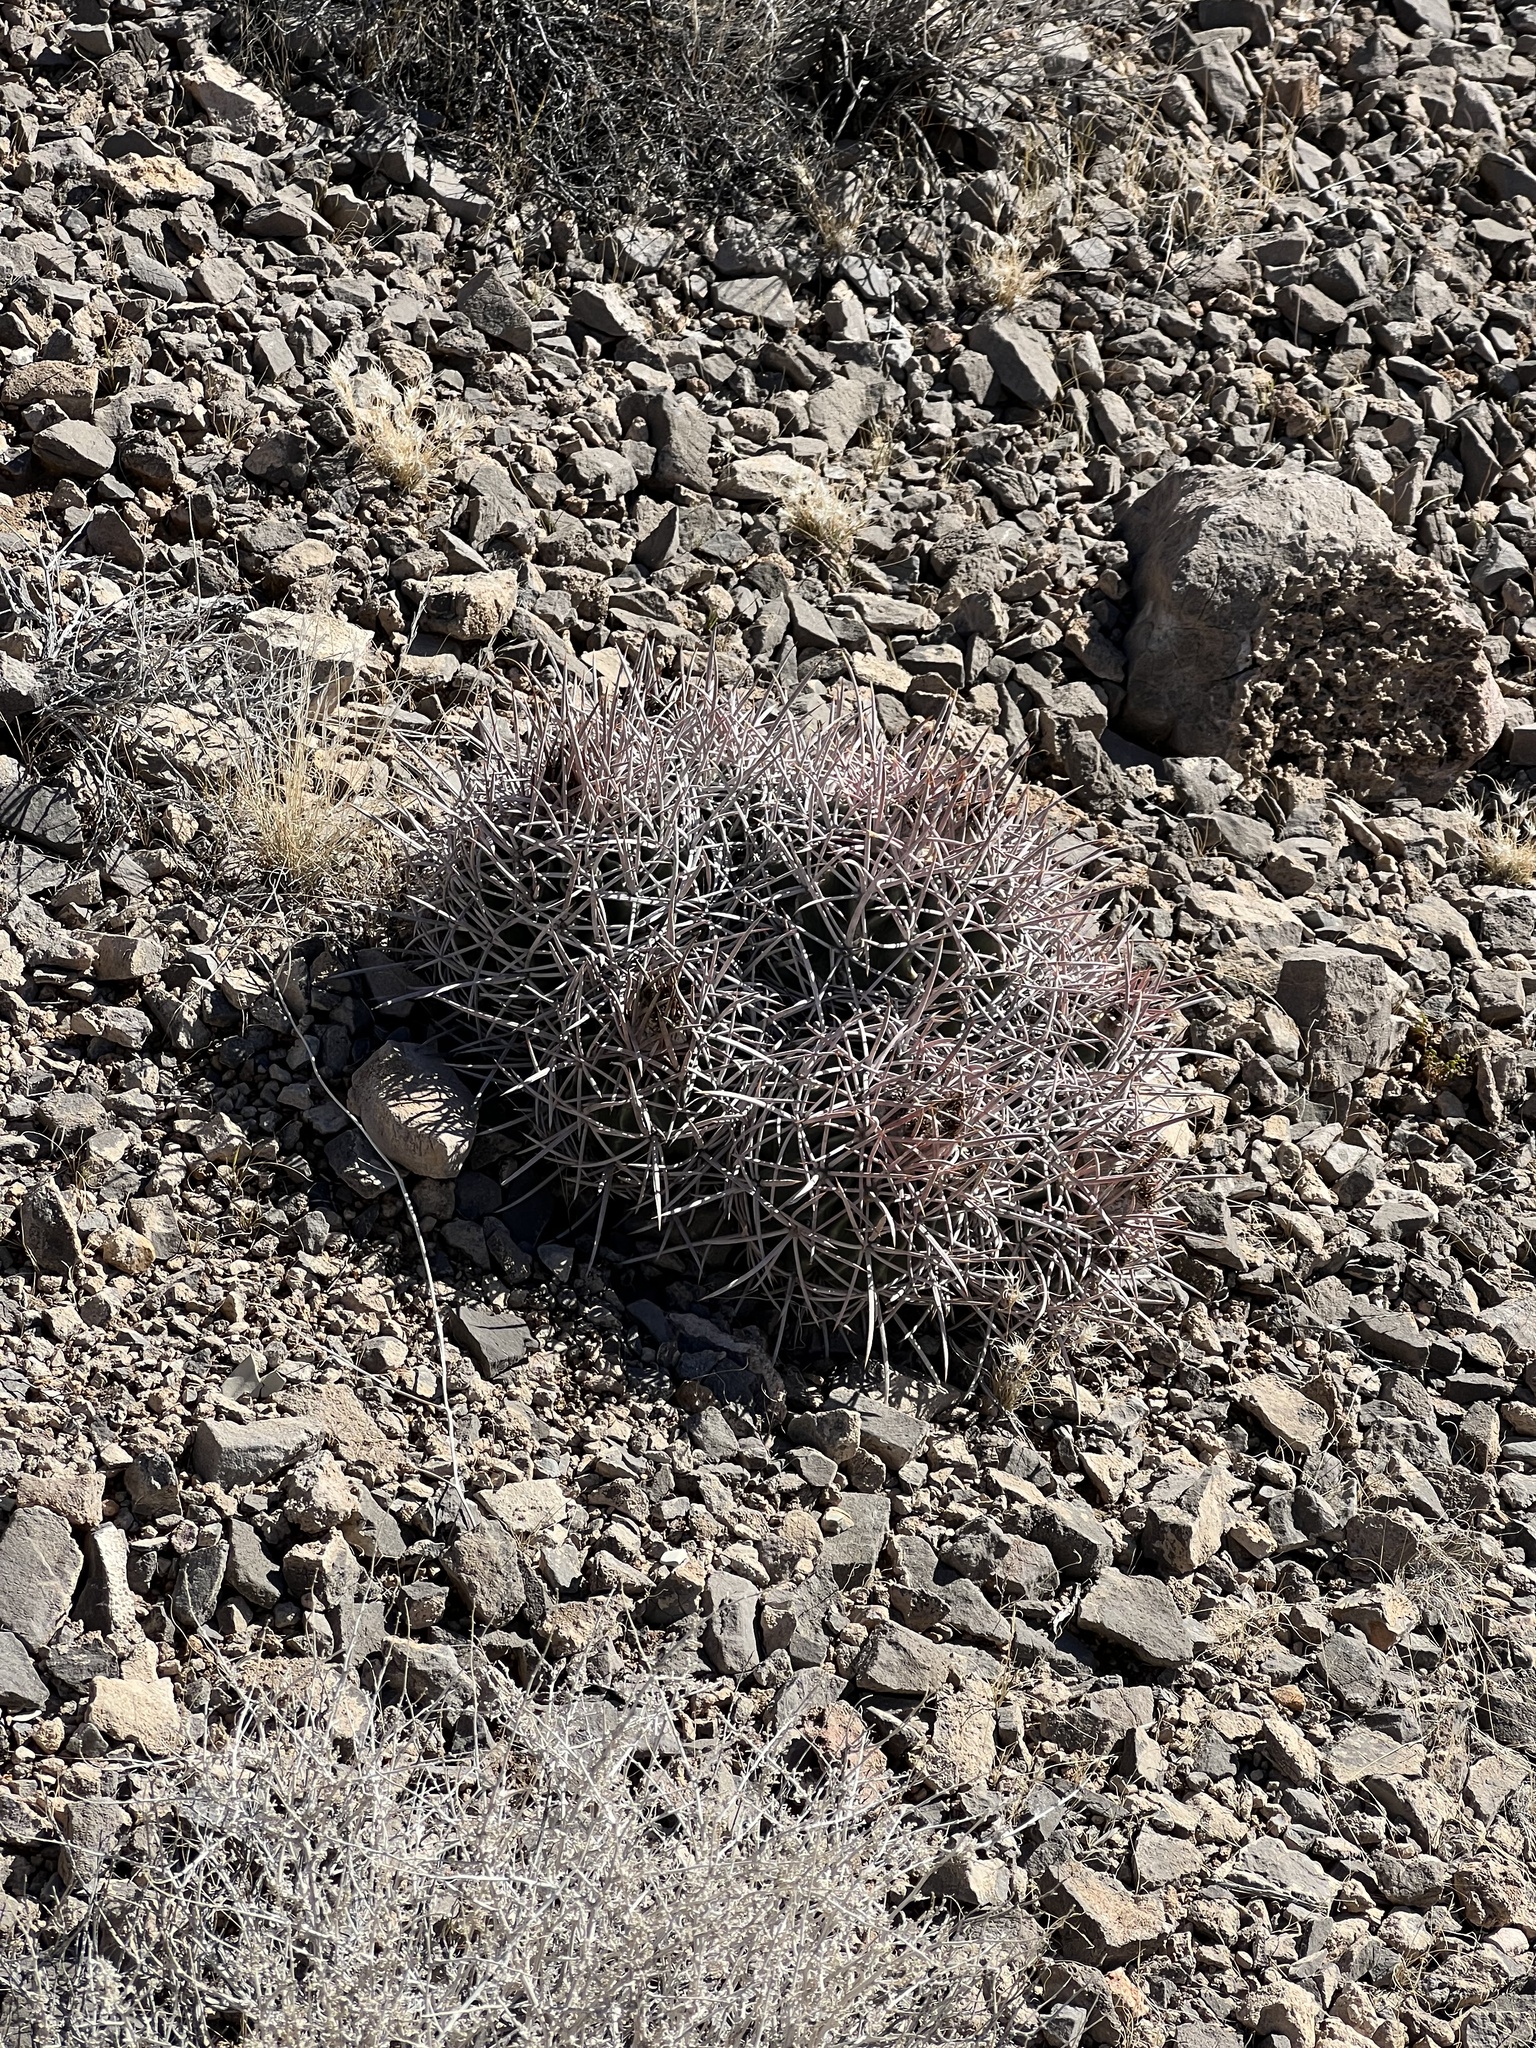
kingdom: Plantae
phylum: Tracheophyta
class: Magnoliopsida
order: Caryophyllales
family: Cactaceae
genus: Echinocactus
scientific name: Echinocactus polycephalus
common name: Cottontop cactus
